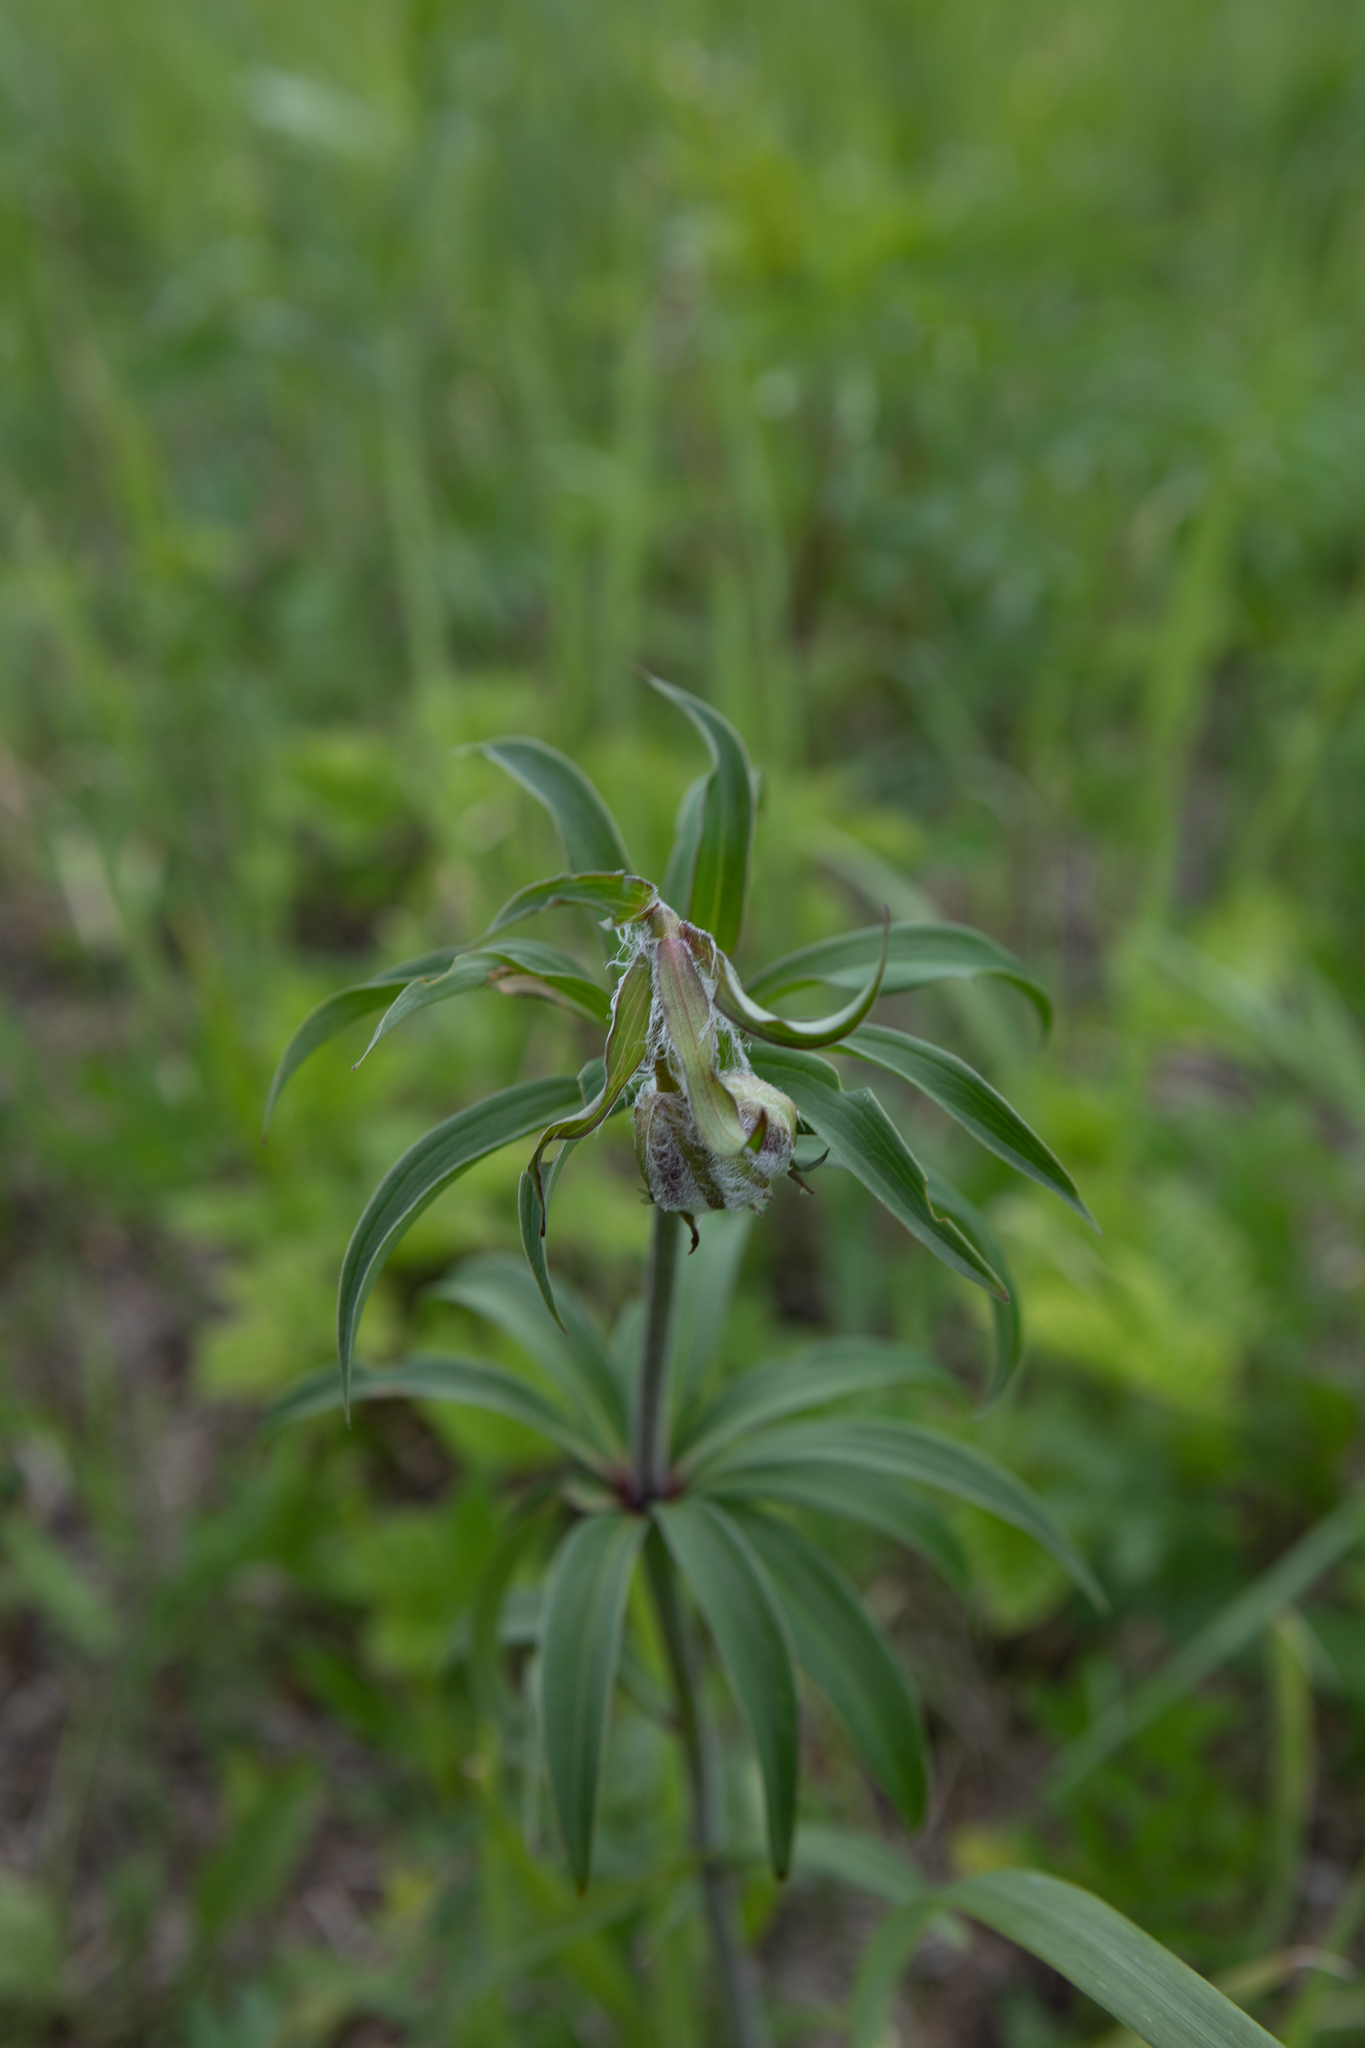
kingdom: Plantae
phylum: Tracheophyta
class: Liliopsida
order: Liliales
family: Liliaceae
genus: Lilium
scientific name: Lilium martagon
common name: Martagon lily
